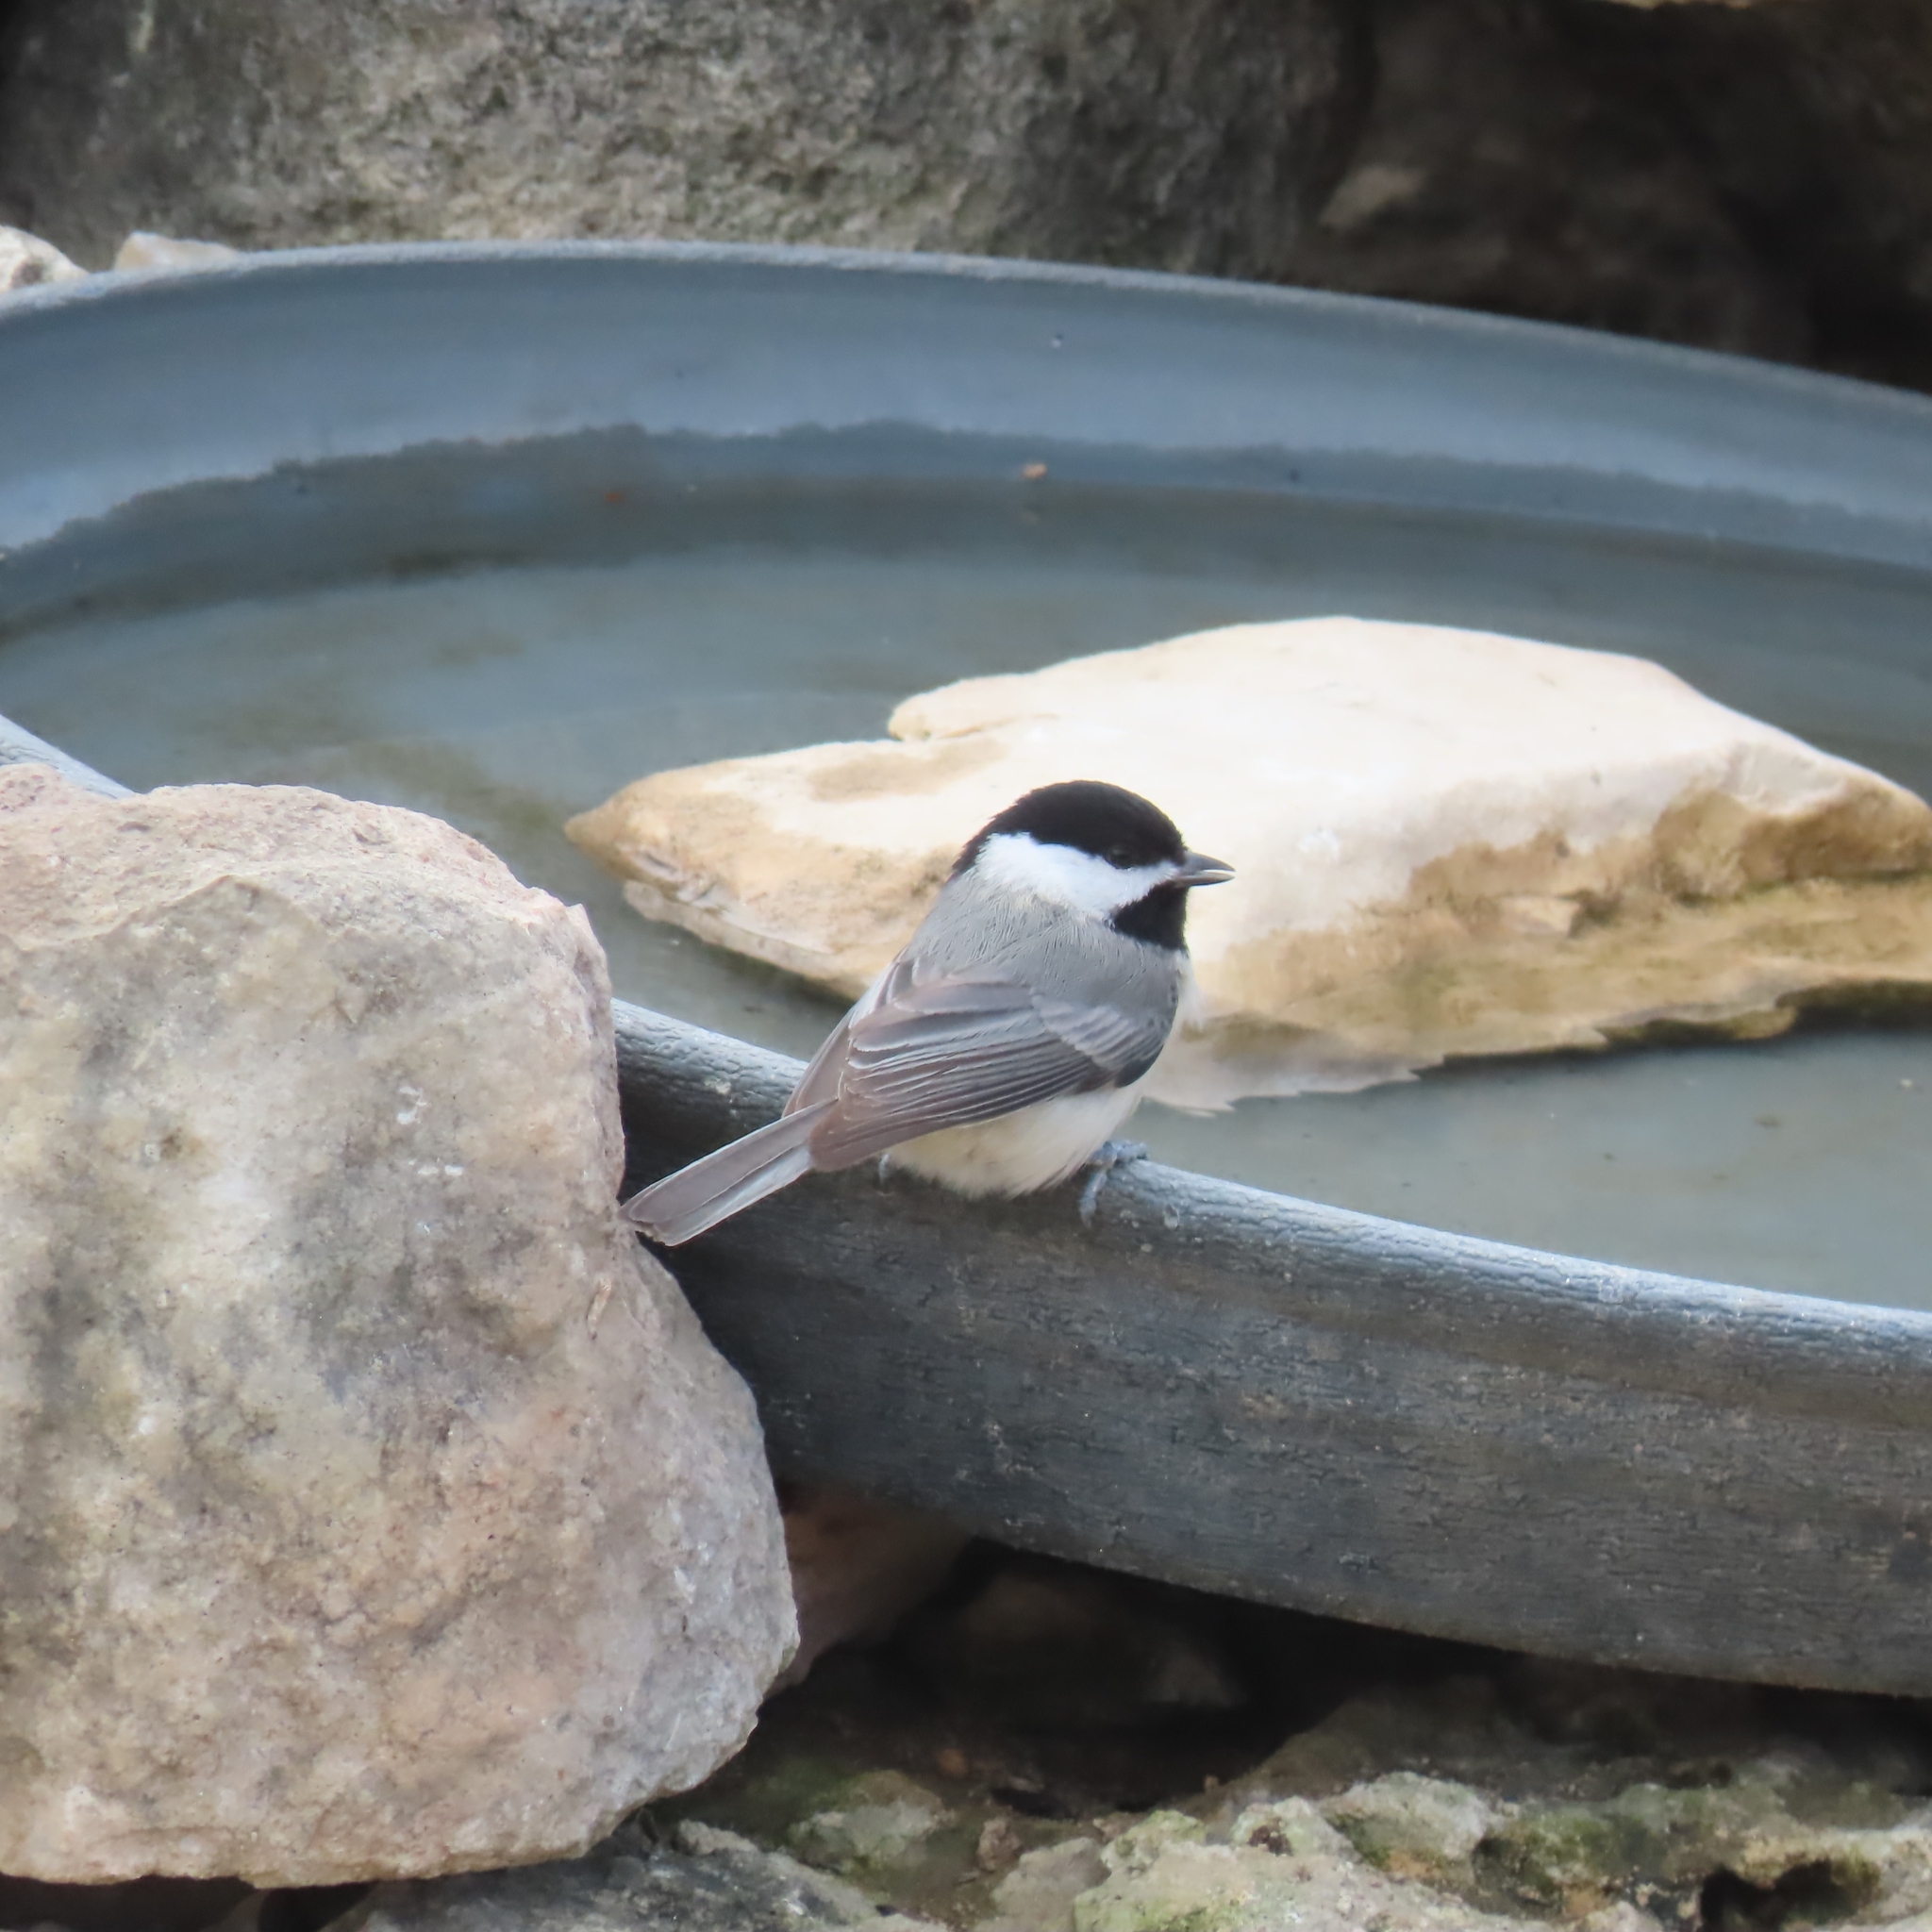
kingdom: Animalia
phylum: Chordata
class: Aves
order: Passeriformes
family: Paridae
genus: Poecile
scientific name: Poecile carolinensis
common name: Carolina chickadee
